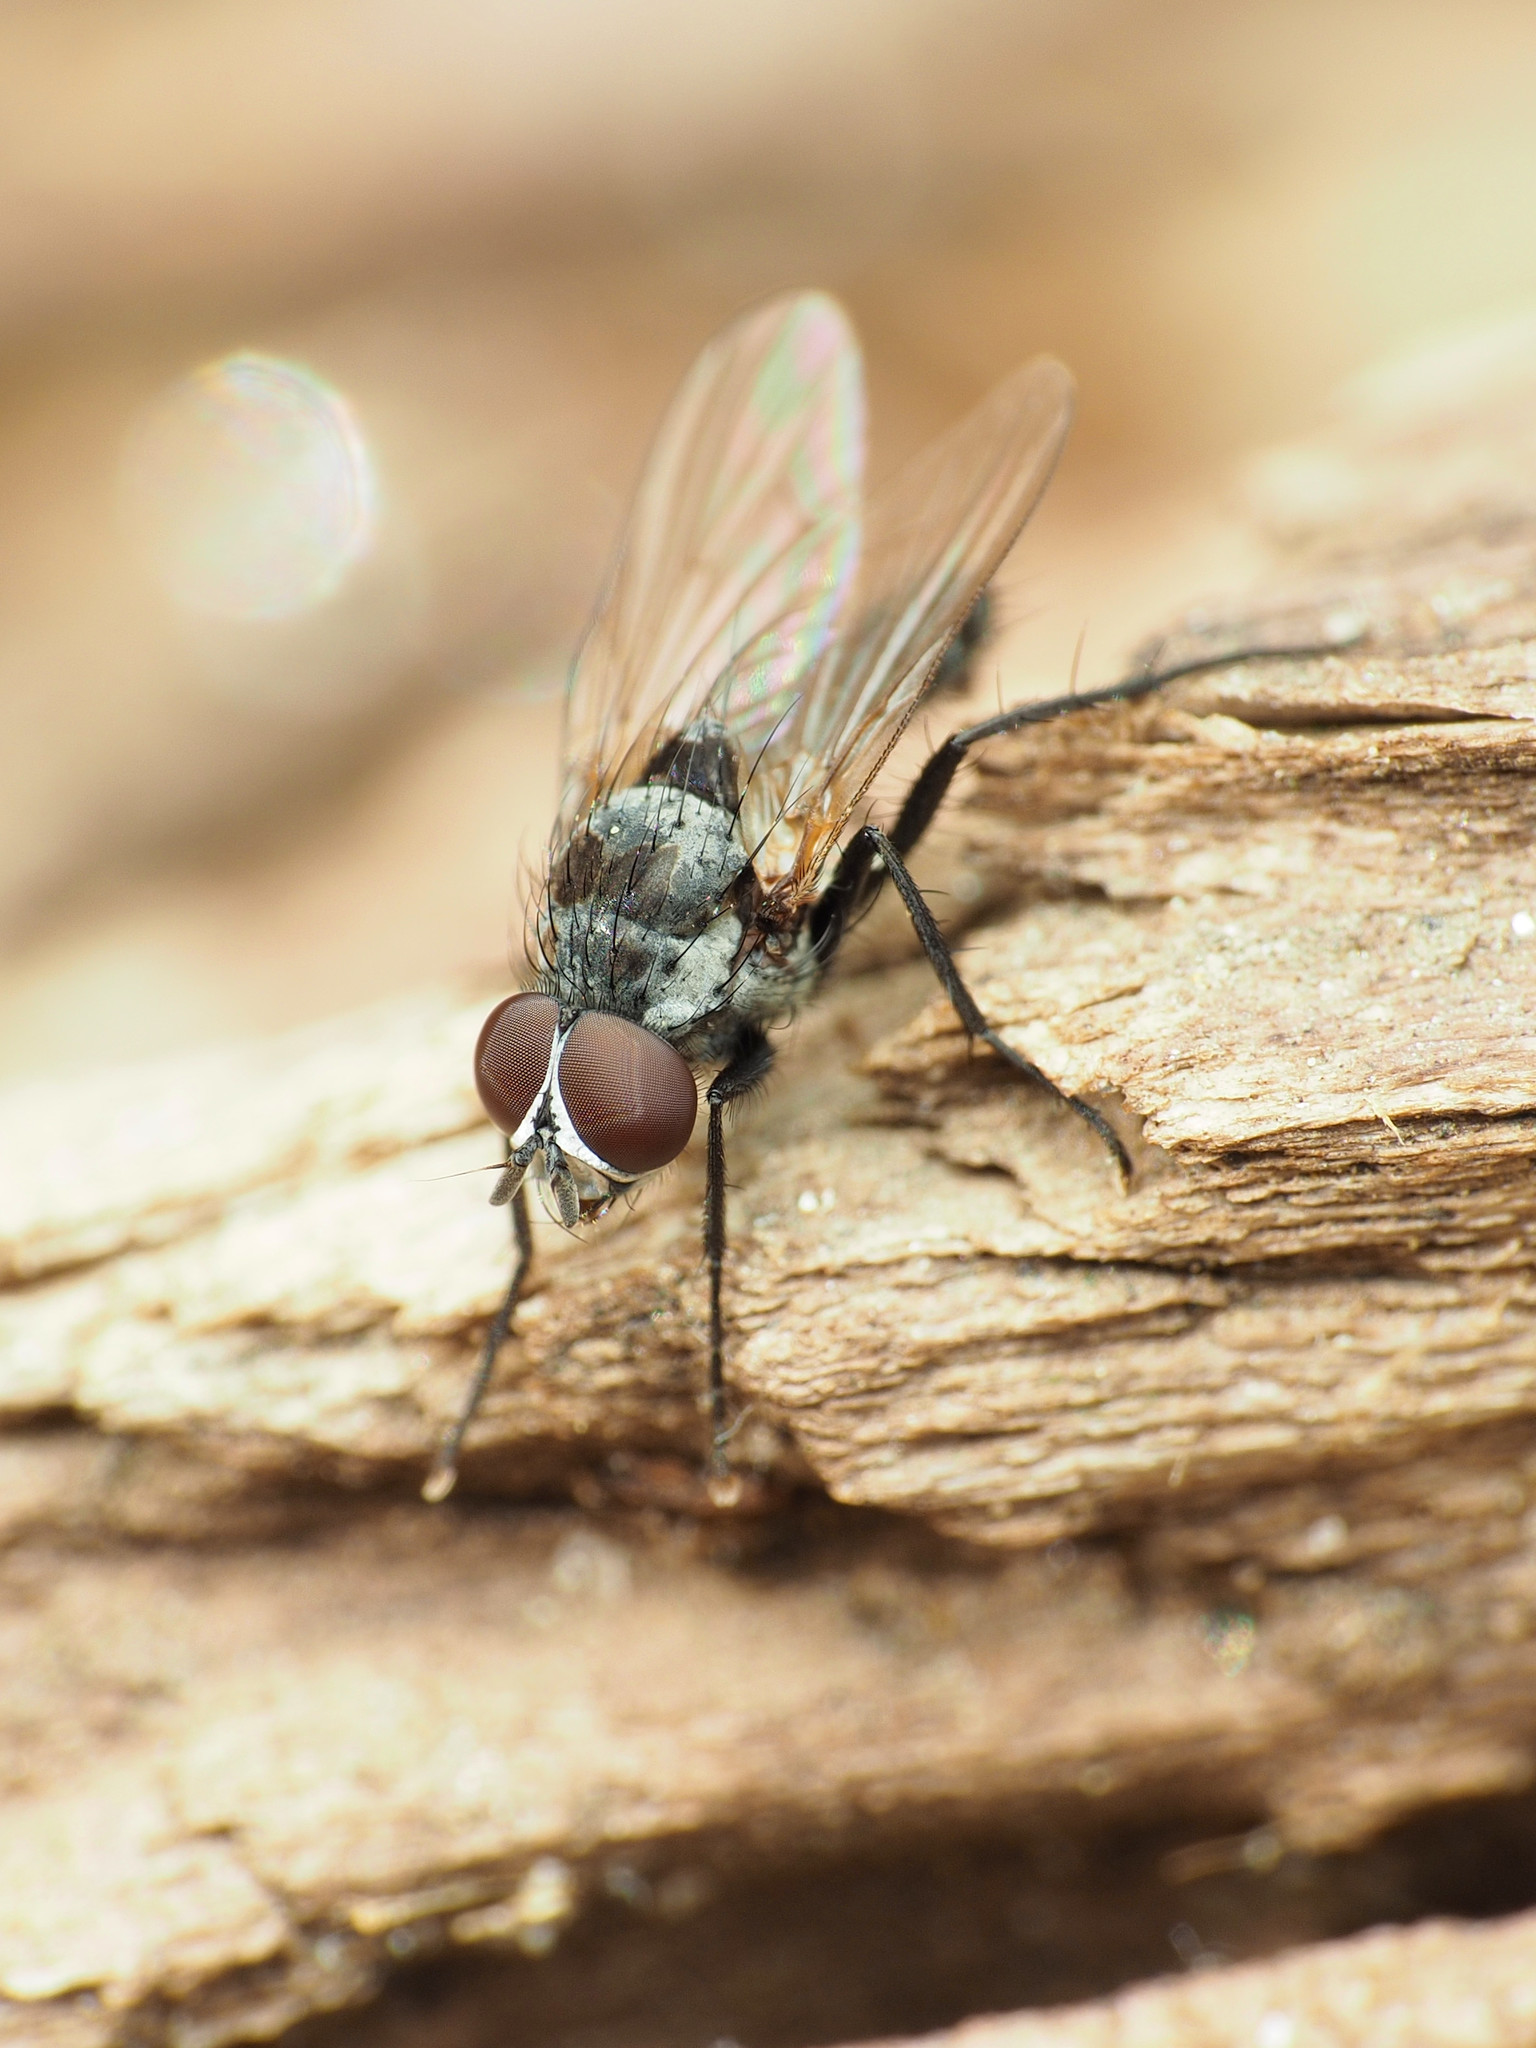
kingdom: Animalia
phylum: Arthropoda
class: Insecta
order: Diptera
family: Anthomyiidae
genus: Anthomyia
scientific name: Anthomyia oculifera
